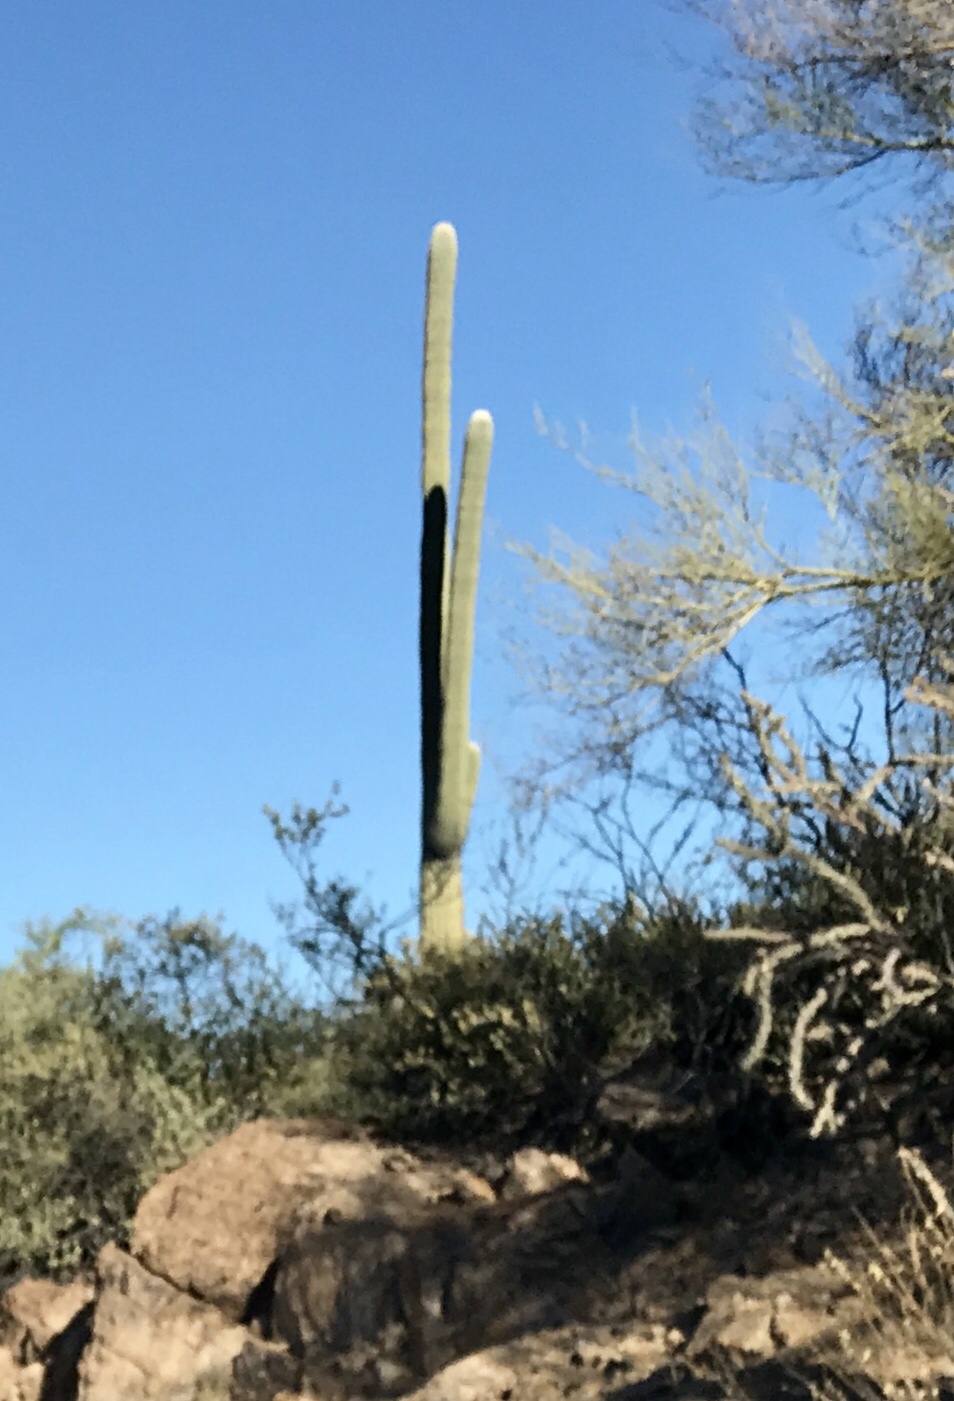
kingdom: Plantae
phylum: Tracheophyta
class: Magnoliopsida
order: Caryophyllales
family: Cactaceae
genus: Carnegiea
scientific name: Carnegiea gigantea
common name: Saguaro
